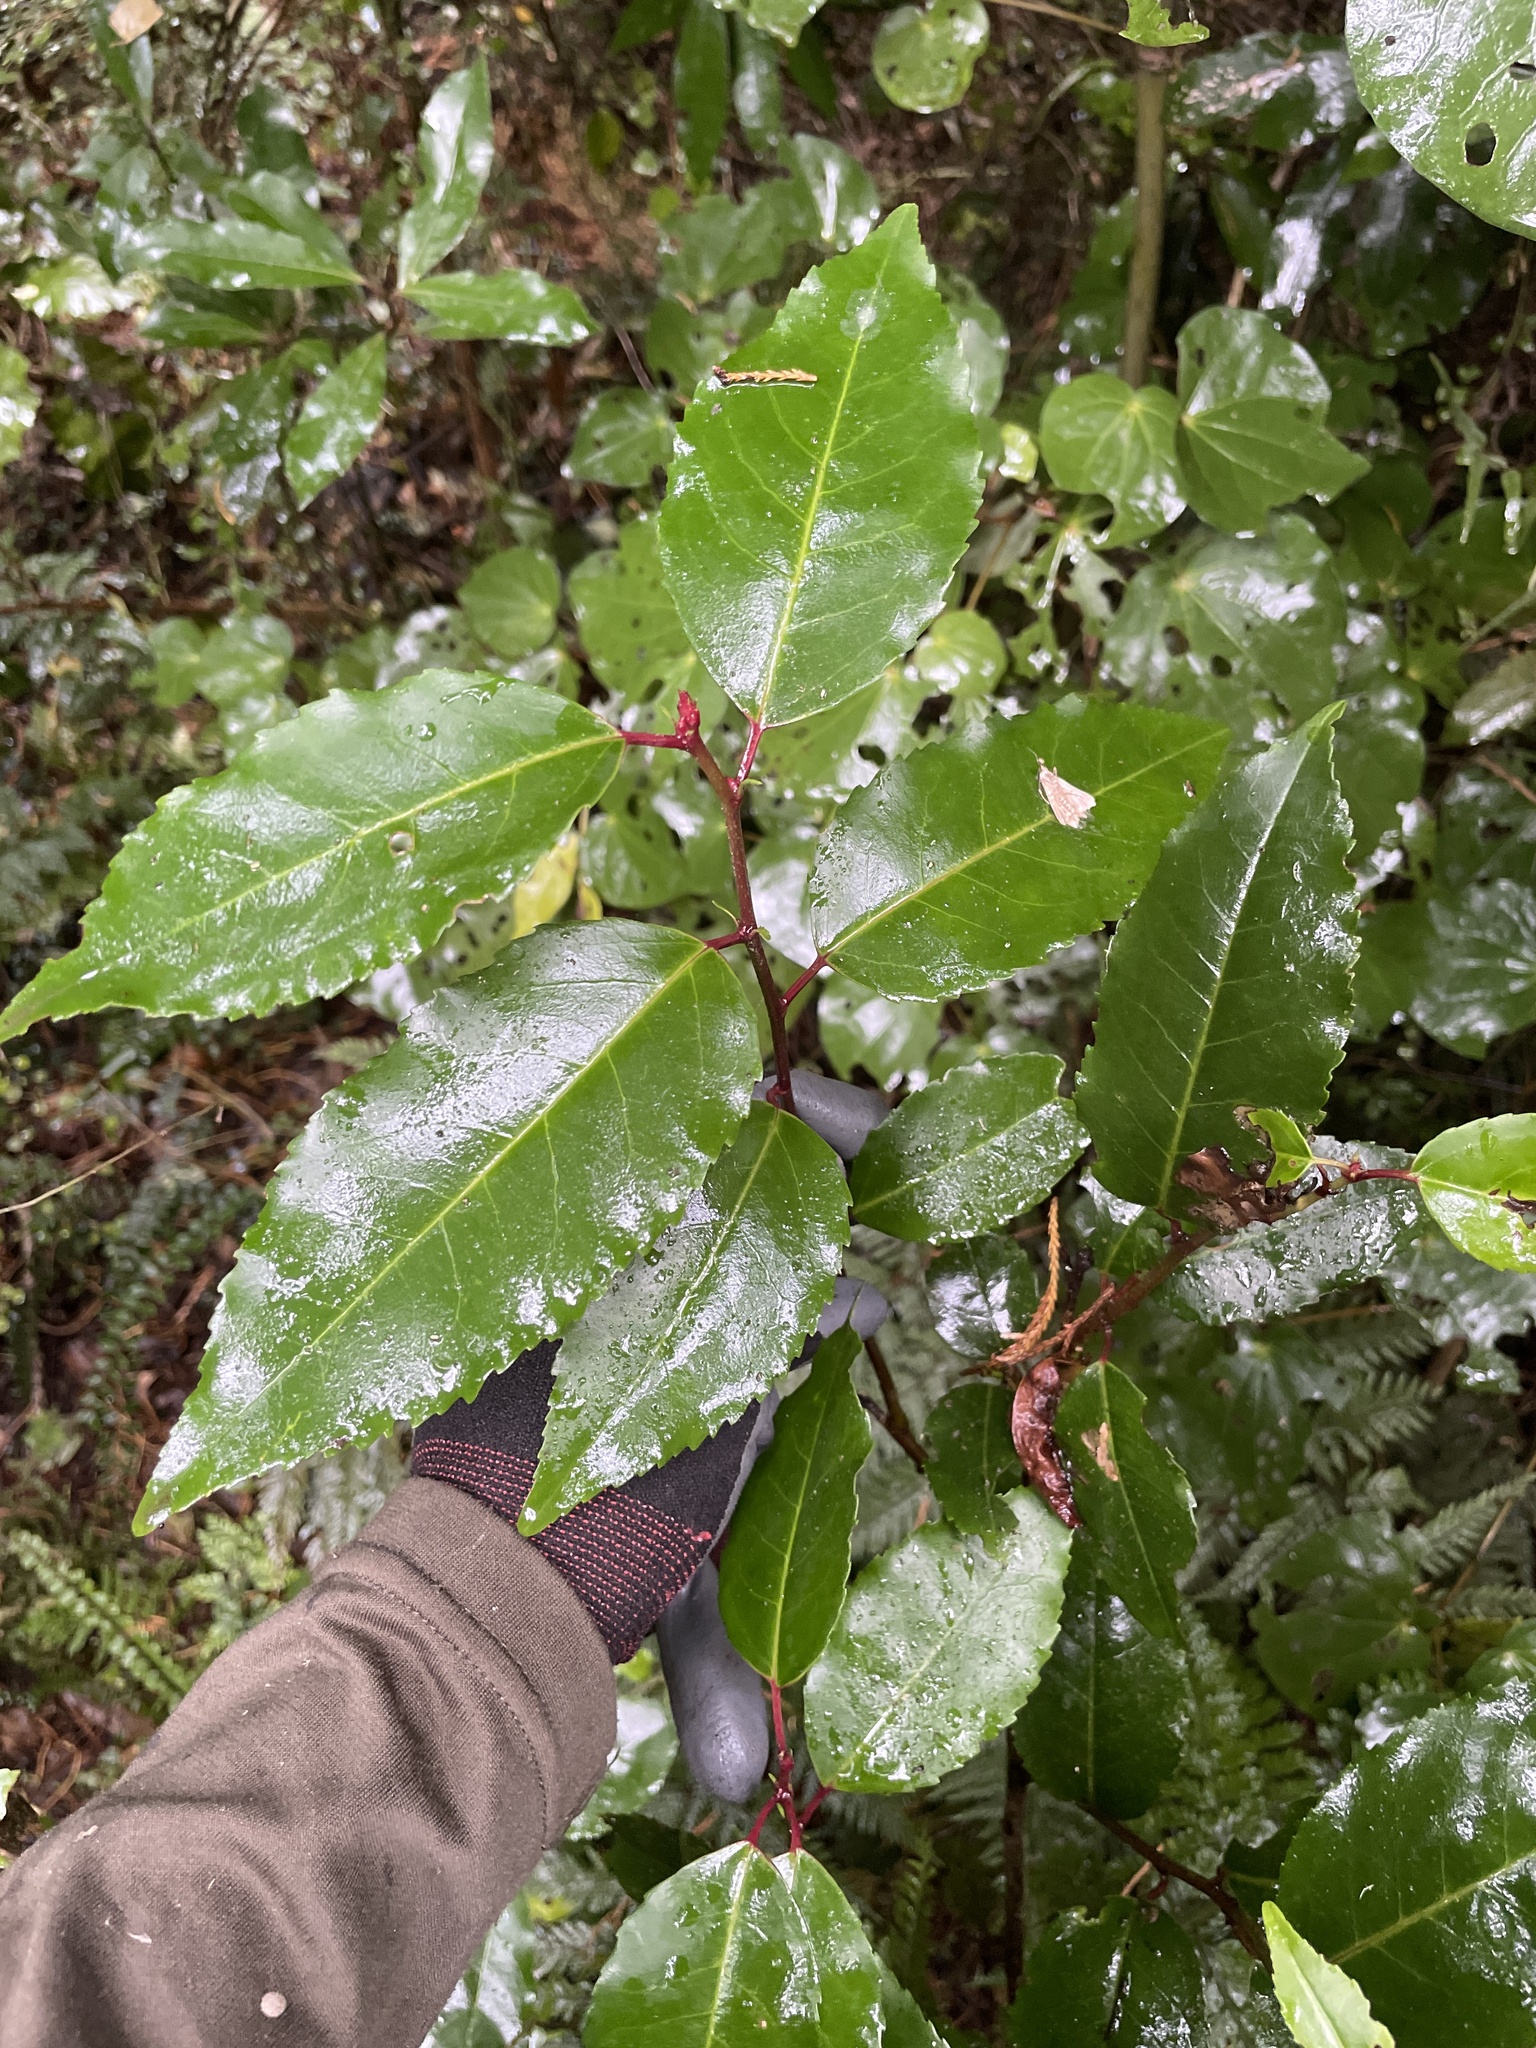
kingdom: Plantae
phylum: Tracheophyta
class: Magnoliopsida
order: Rosales
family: Rosaceae
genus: Prunus
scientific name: Prunus lusitanica
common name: Portugal laurel
